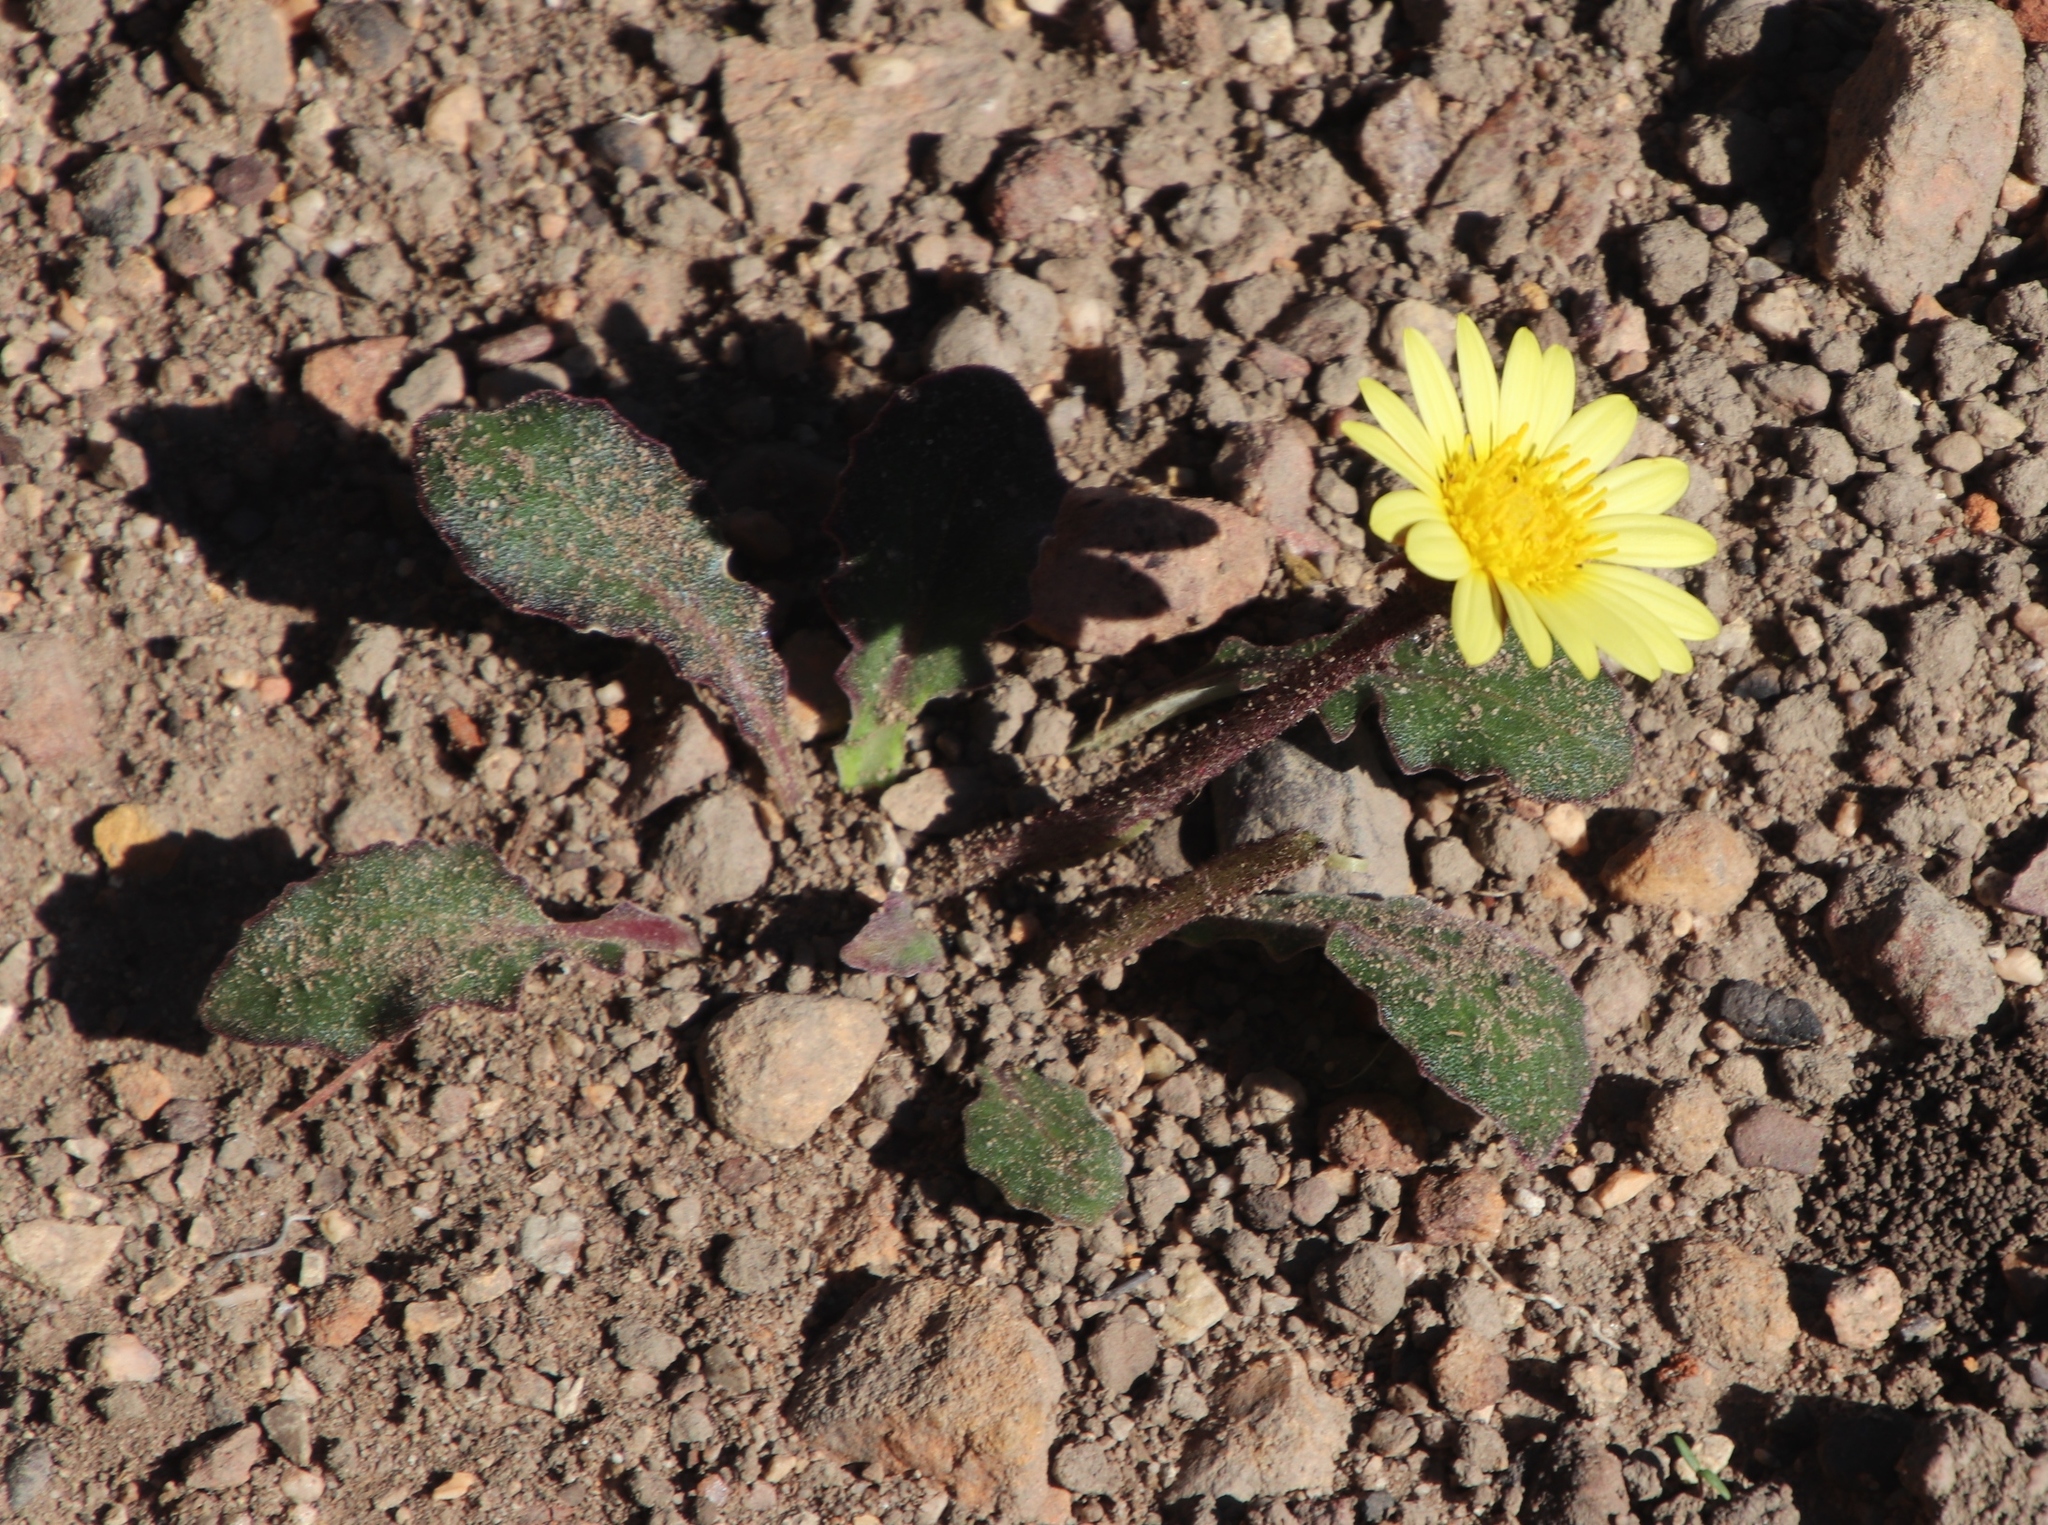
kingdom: Plantae
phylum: Tracheophyta
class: Magnoliopsida
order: Asterales
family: Asteraceae
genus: Haplocarpha
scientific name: Haplocarpha lanata
